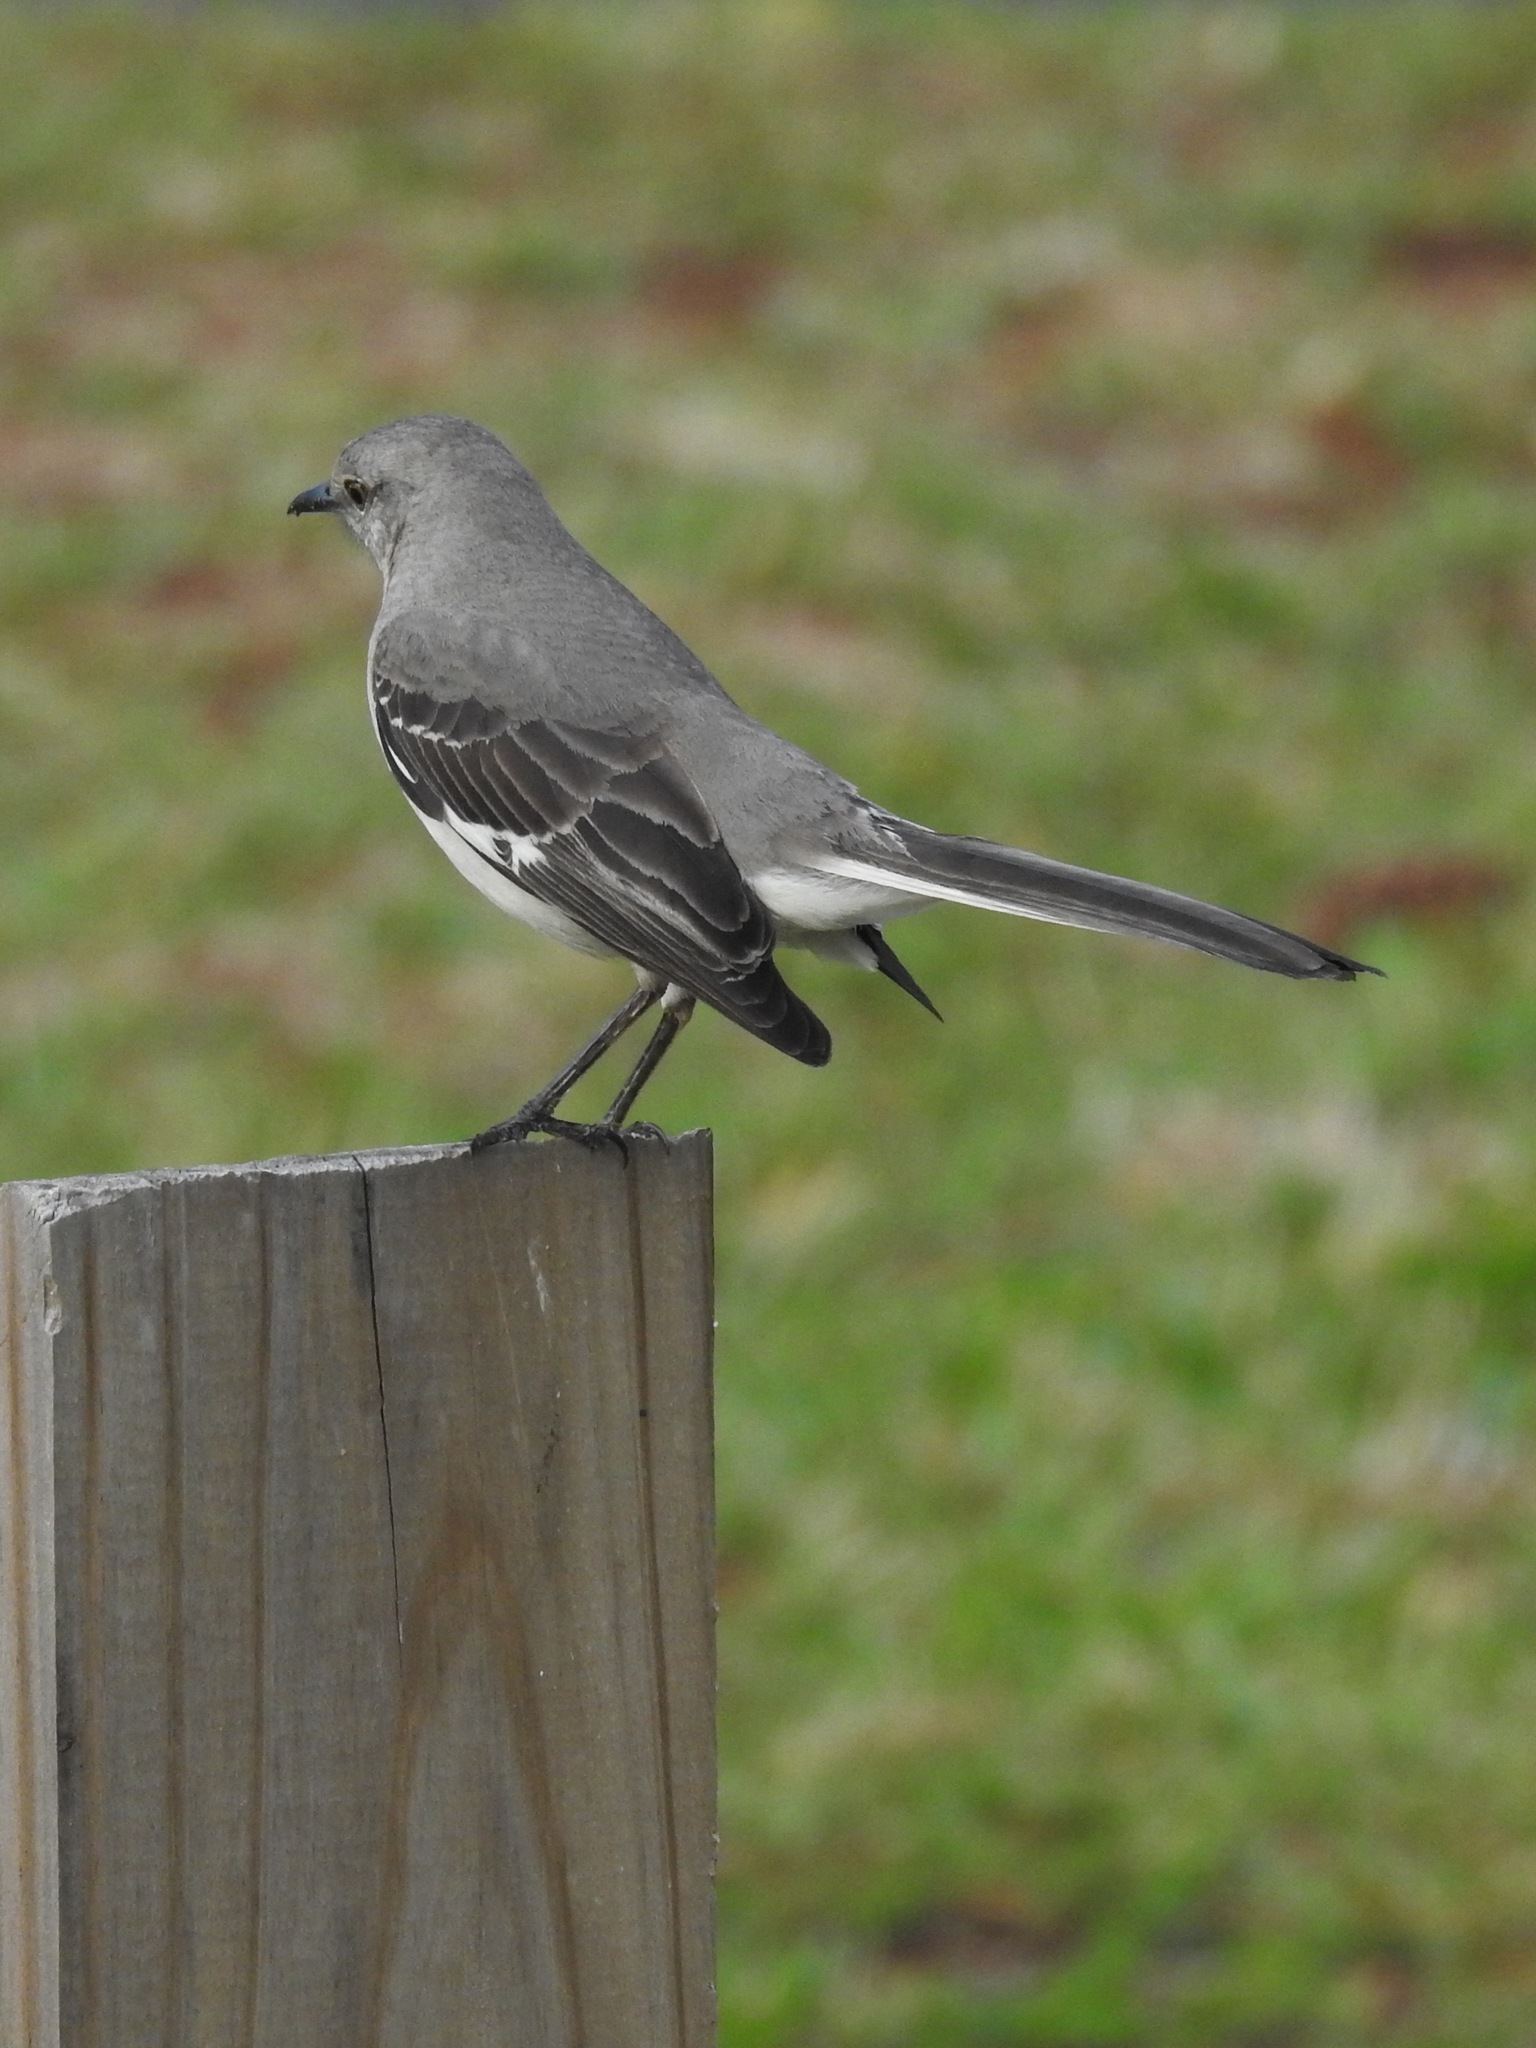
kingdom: Animalia
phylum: Chordata
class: Aves
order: Passeriformes
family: Mimidae
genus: Mimus
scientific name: Mimus polyglottos
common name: Northern mockingbird
